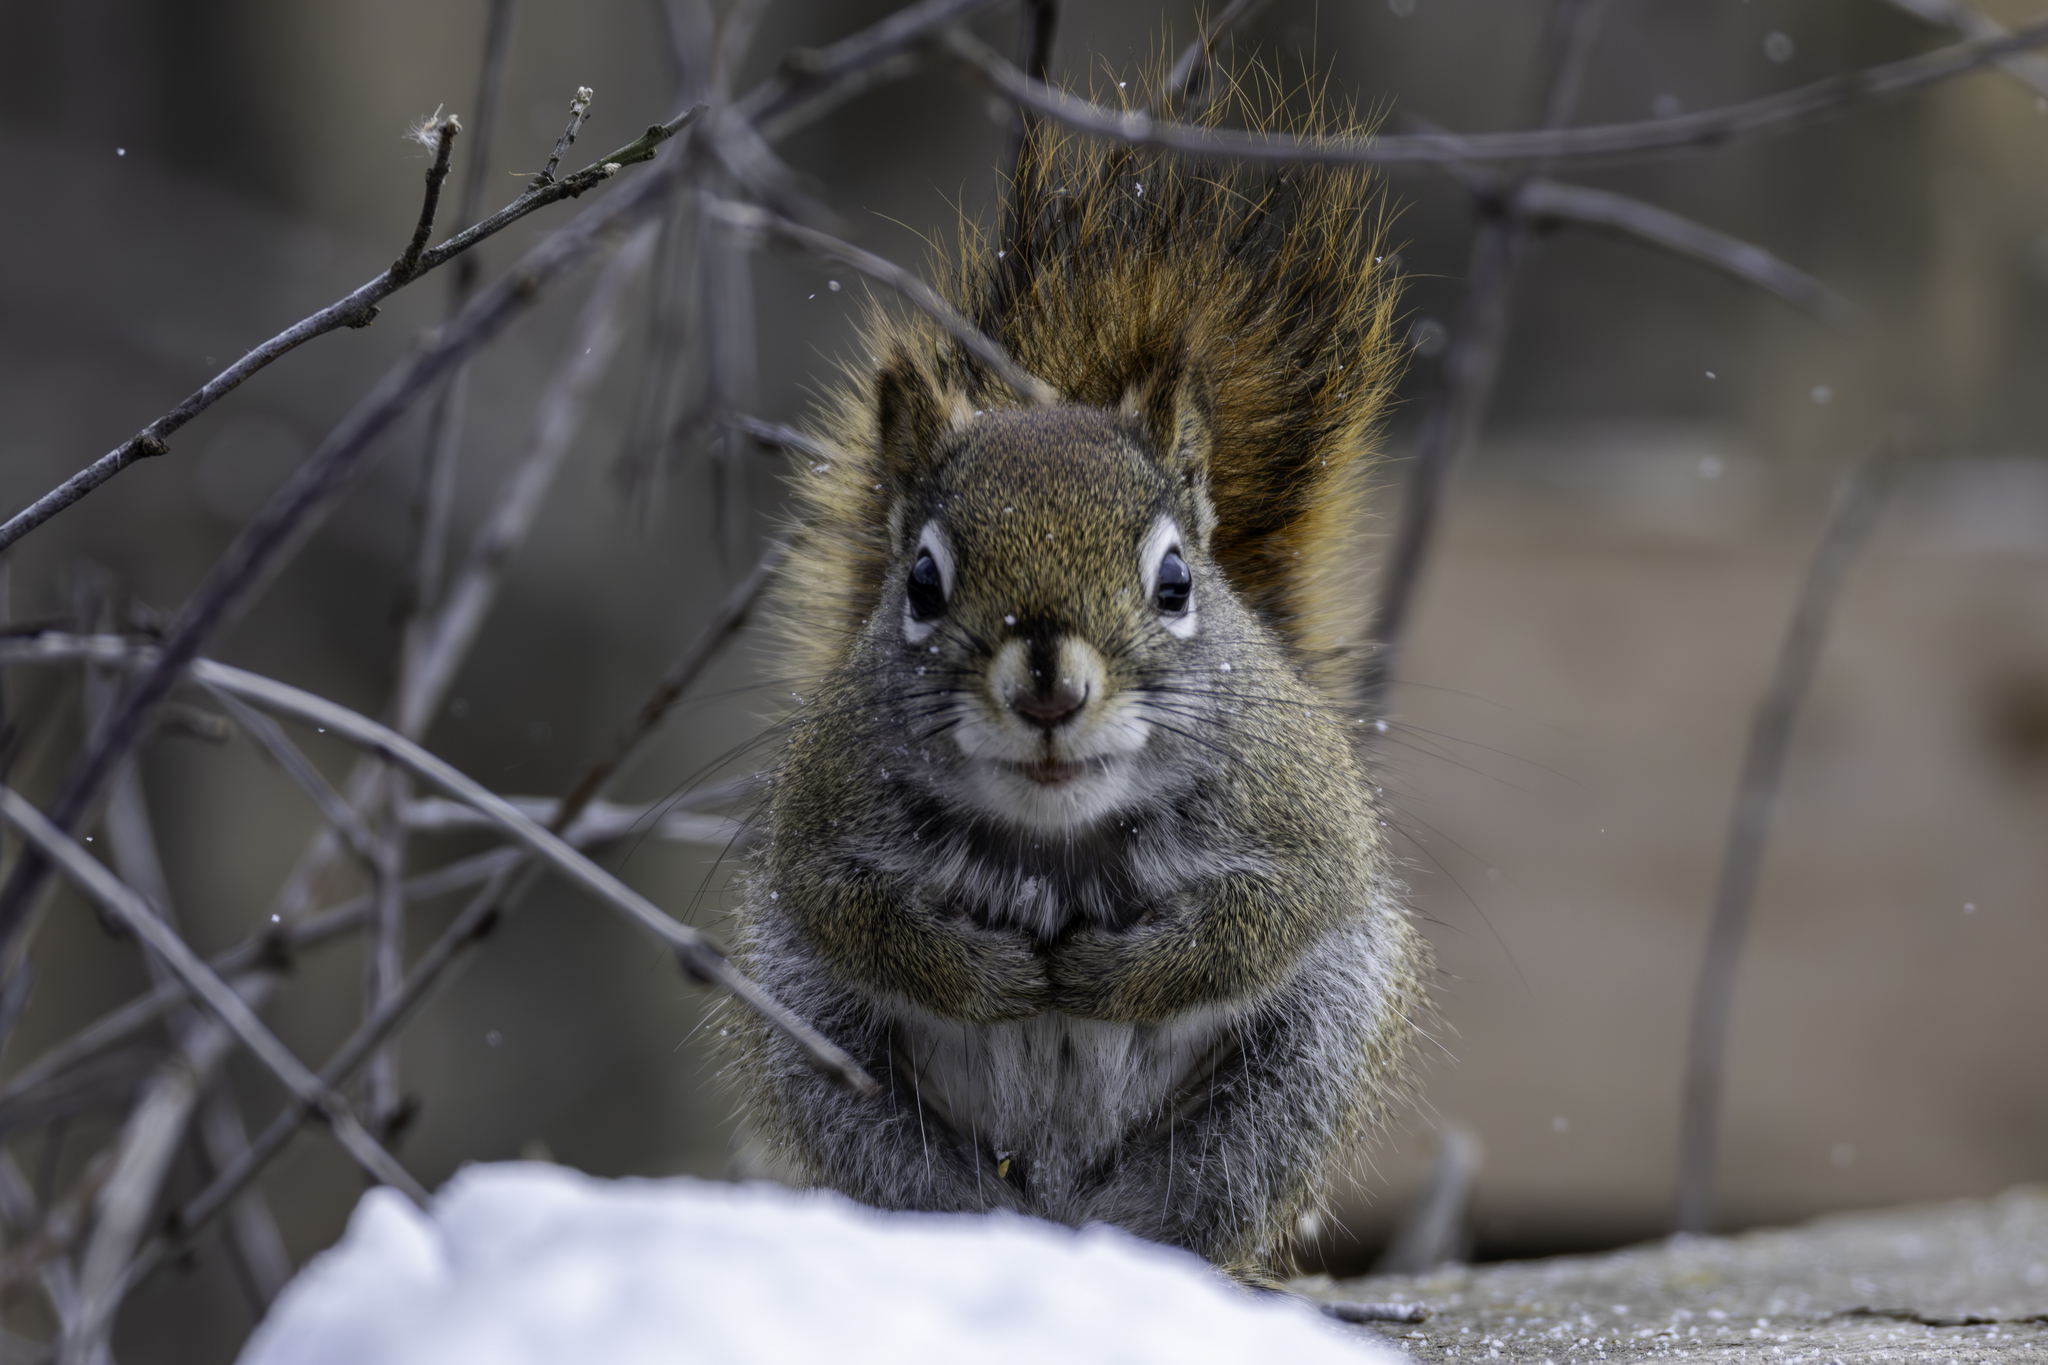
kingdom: Animalia
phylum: Chordata
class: Mammalia
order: Rodentia
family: Sciuridae
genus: Tamiasciurus
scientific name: Tamiasciurus hudsonicus
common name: Red squirrel
